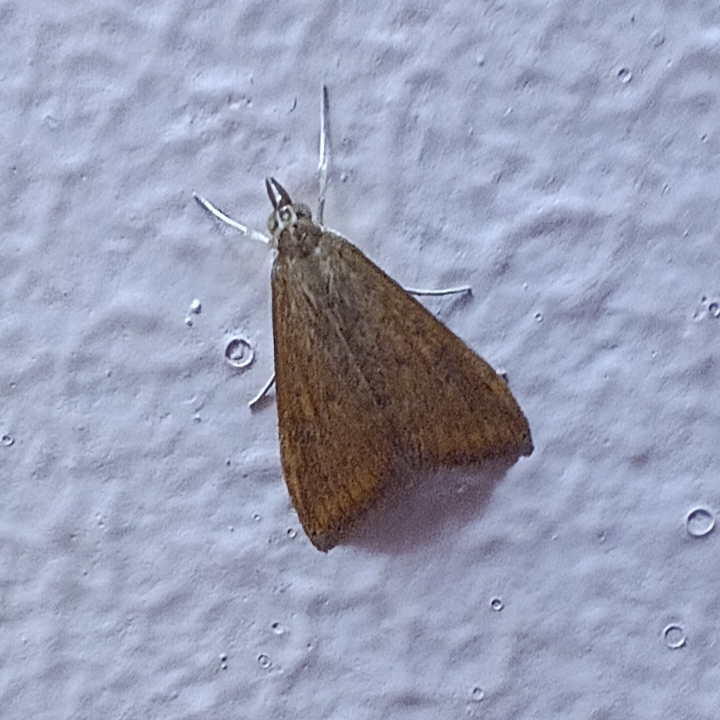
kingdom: Animalia
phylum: Arthropoda
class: Insecta
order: Lepidoptera
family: Crambidae
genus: Udea
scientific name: Udea ferrugalis
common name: Rusty dot
